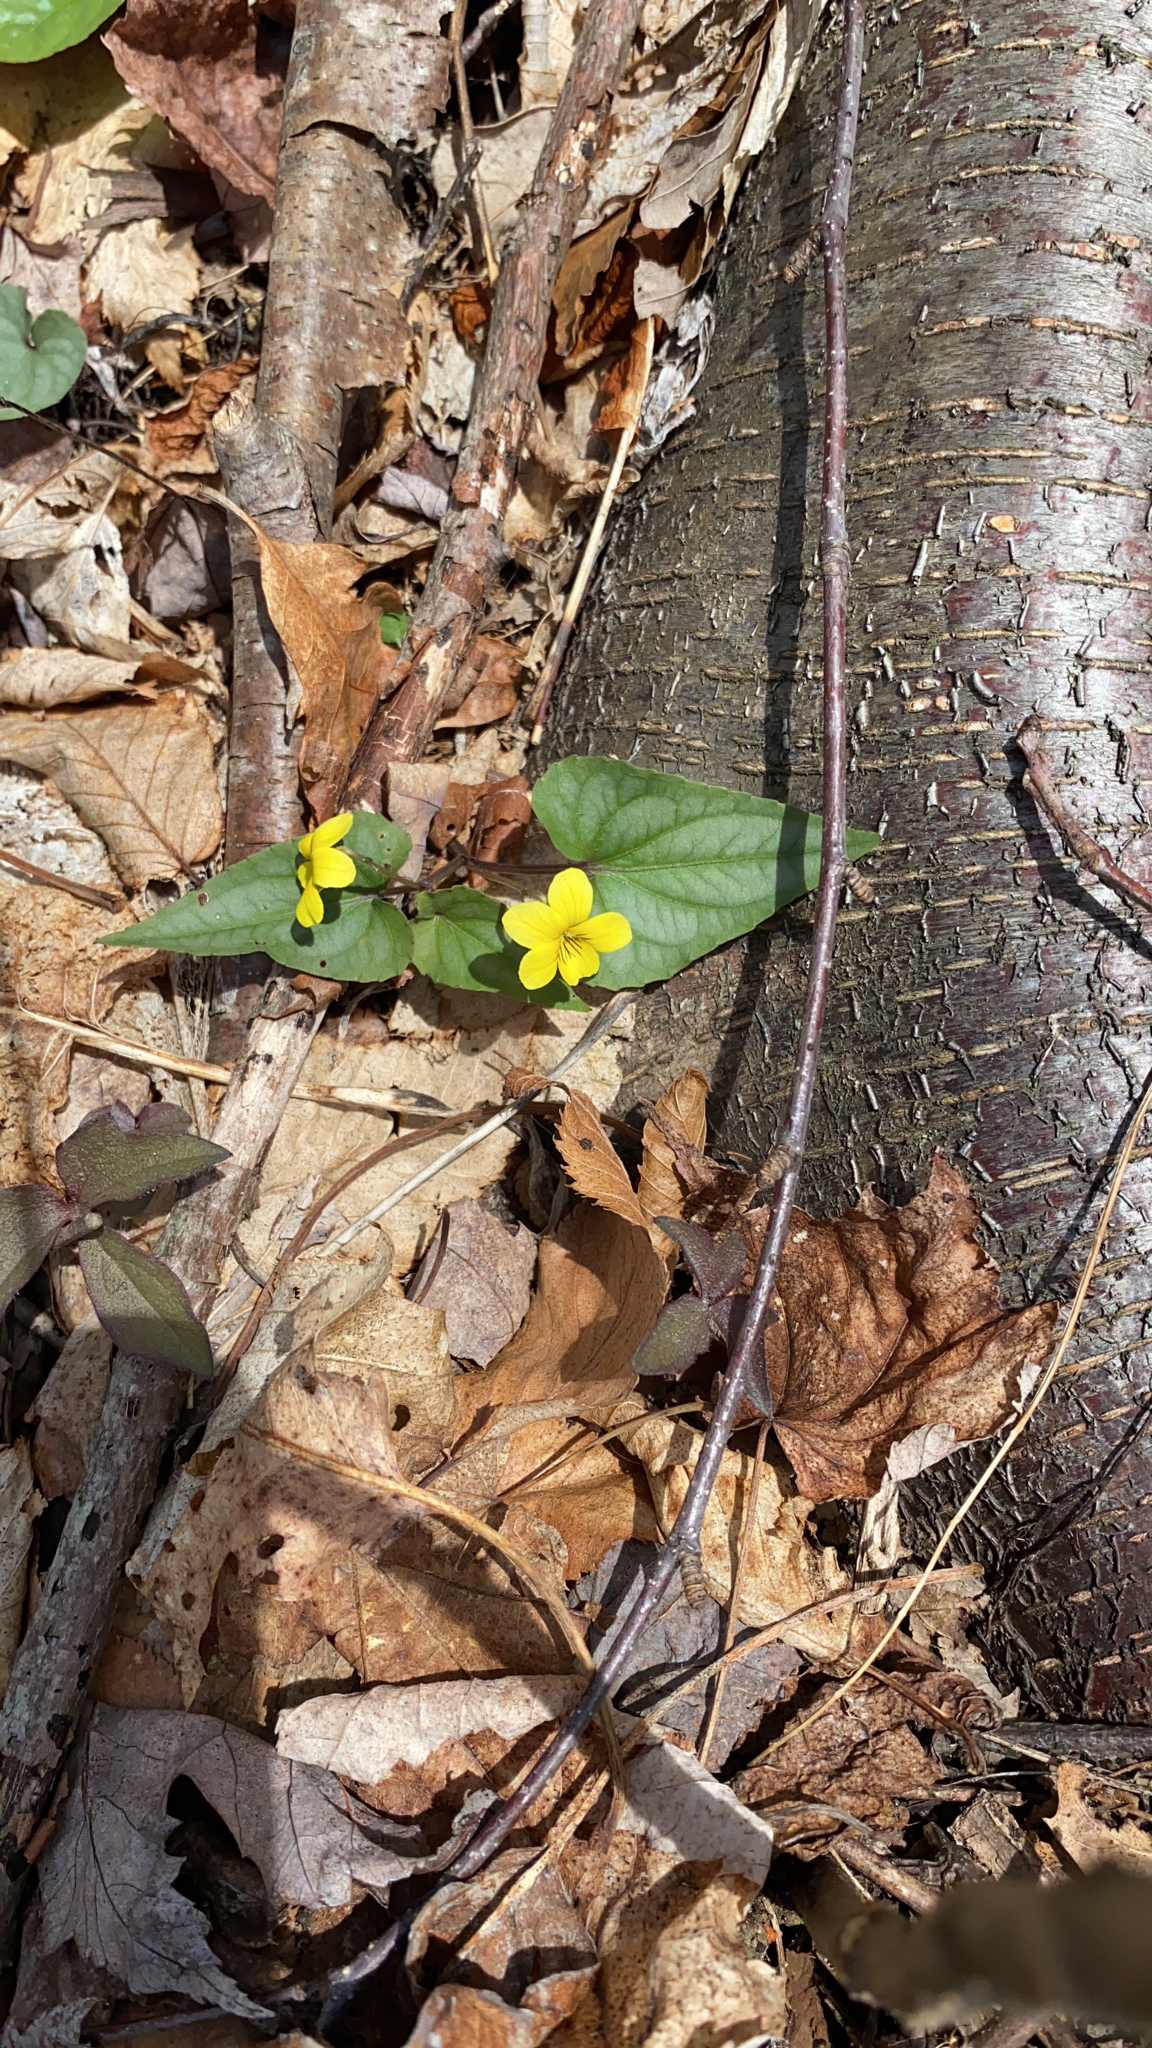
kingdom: Plantae
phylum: Tracheophyta
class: Magnoliopsida
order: Malpighiales
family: Violaceae
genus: Viola
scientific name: Viola hastata
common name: Spear-leaf violet
